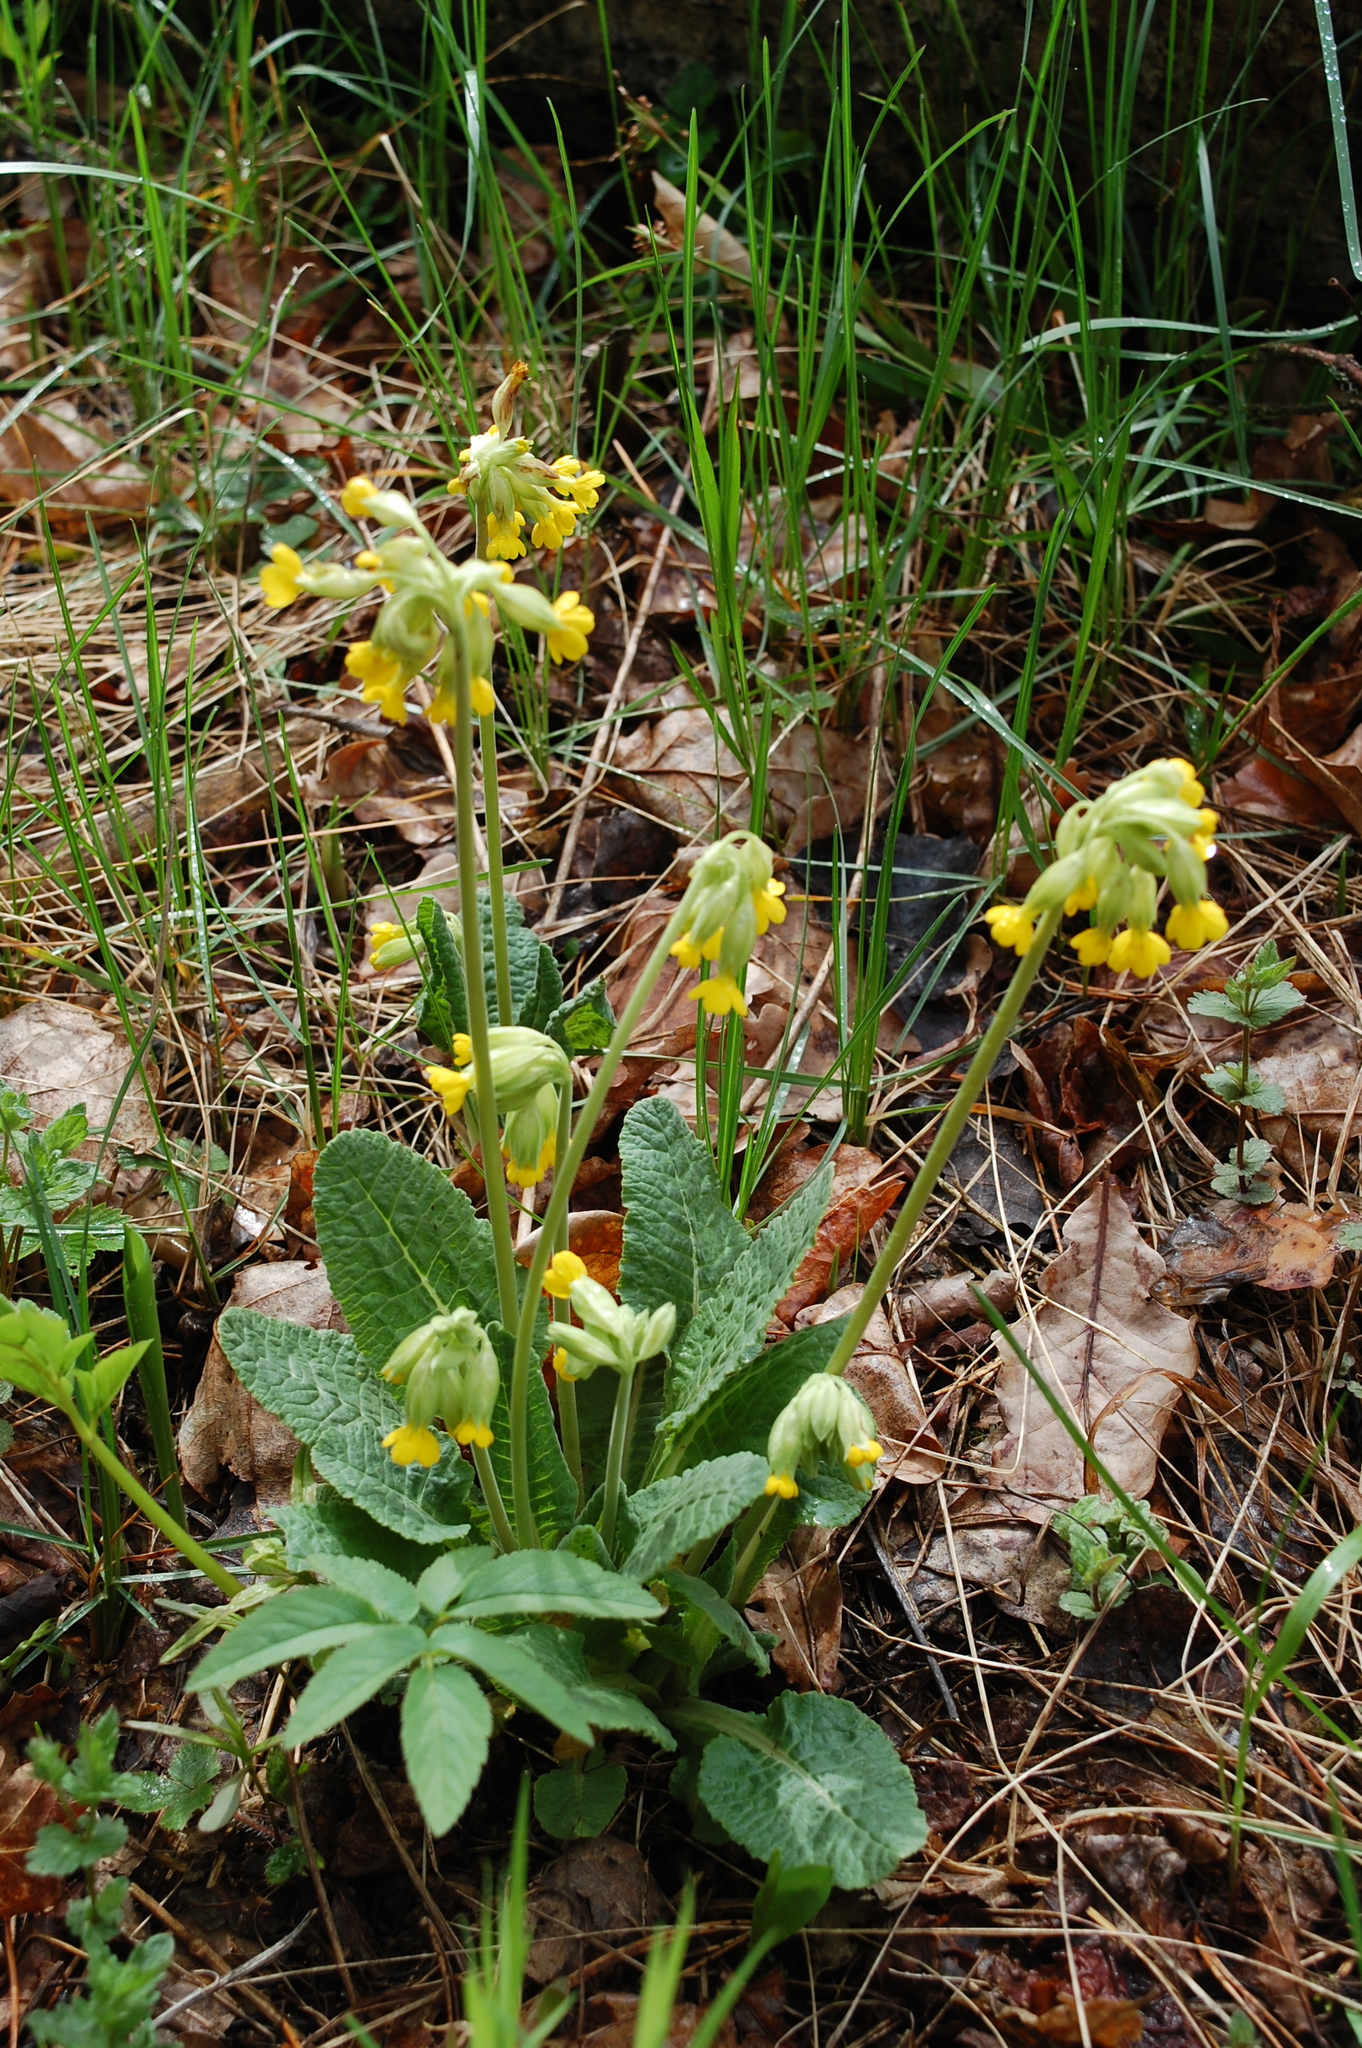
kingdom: Plantae
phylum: Tracheophyta
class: Magnoliopsida
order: Ericales
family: Primulaceae
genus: Primula
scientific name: Primula veris
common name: Cowslip
